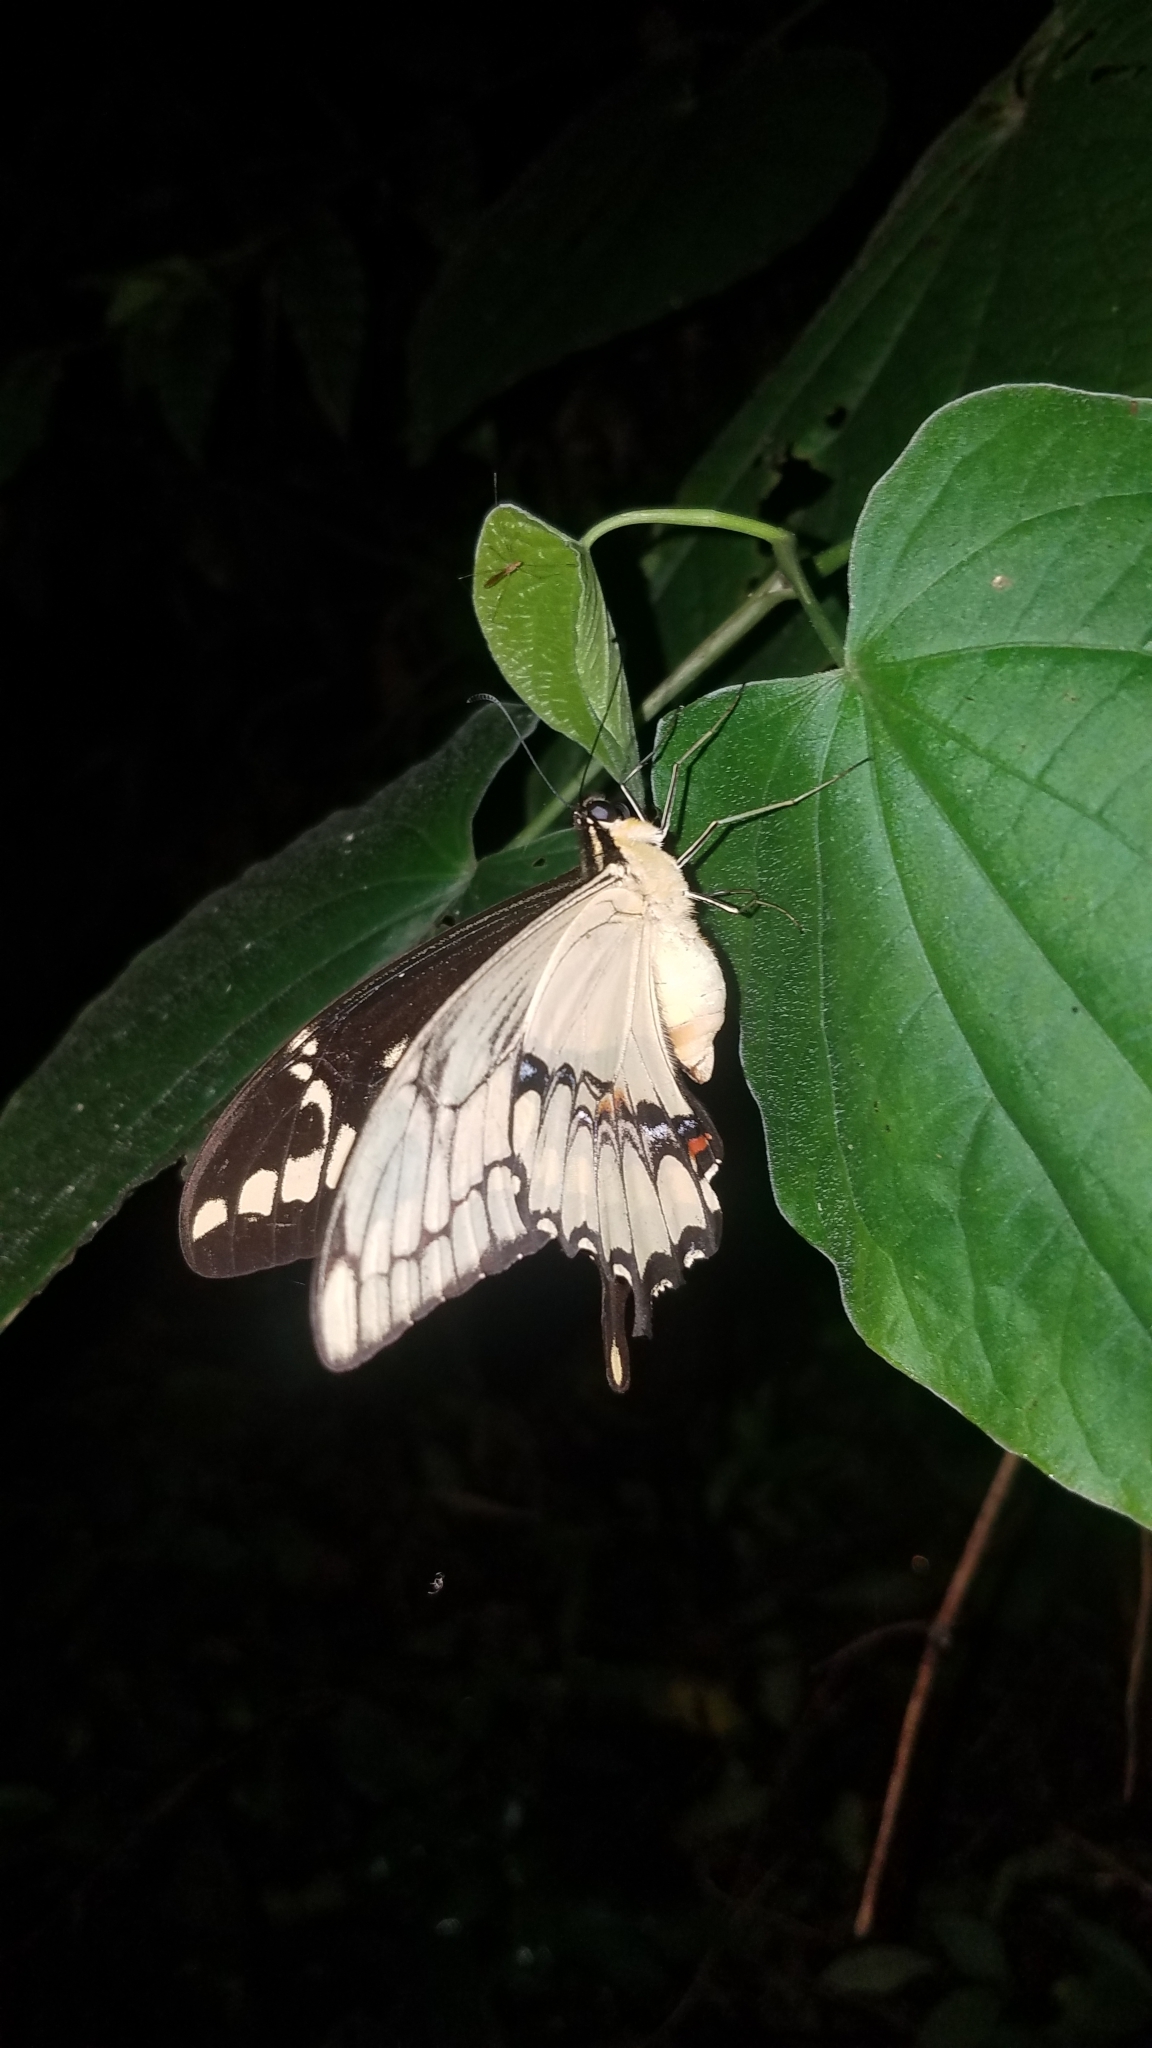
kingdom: Animalia
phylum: Arthropoda
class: Insecta
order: Lepidoptera
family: Papilionidae
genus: Papilio
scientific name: Papilio thoas
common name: King swallowtail
